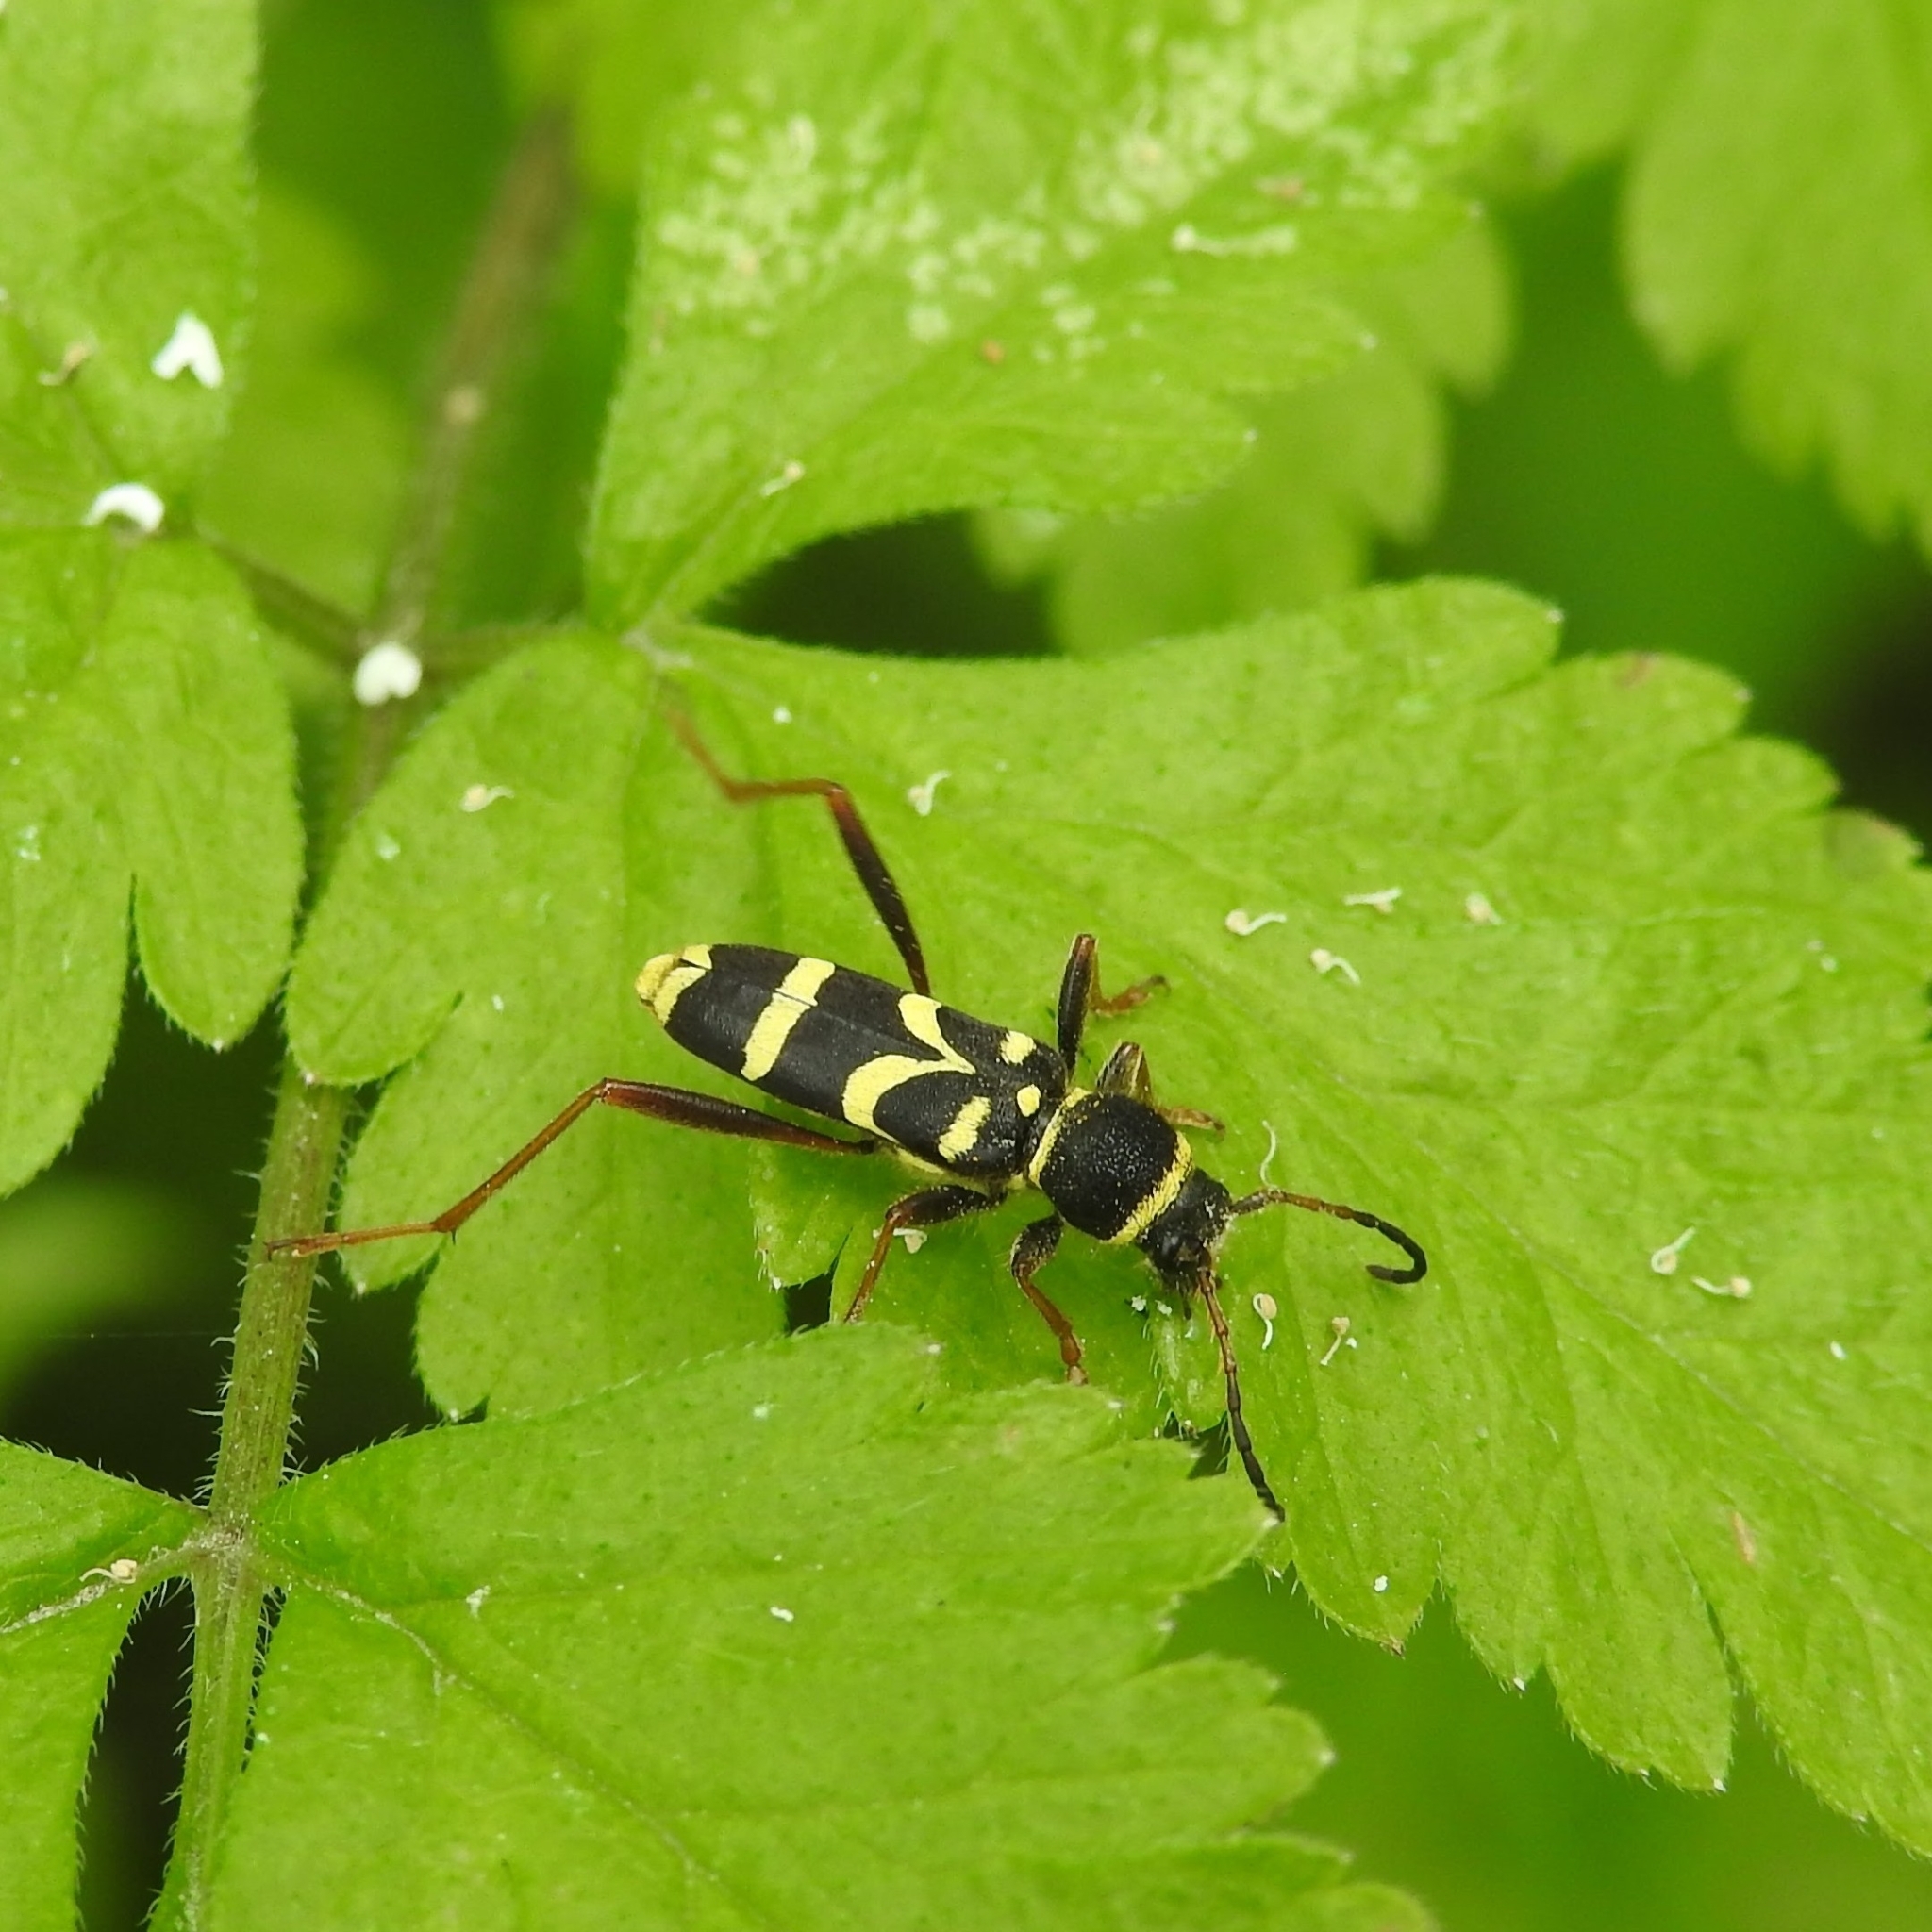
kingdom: Animalia
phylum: Arthropoda
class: Insecta
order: Coleoptera
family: Cerambycidae
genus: Clytus
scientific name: Clytus arietis
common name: Wasp beetle
